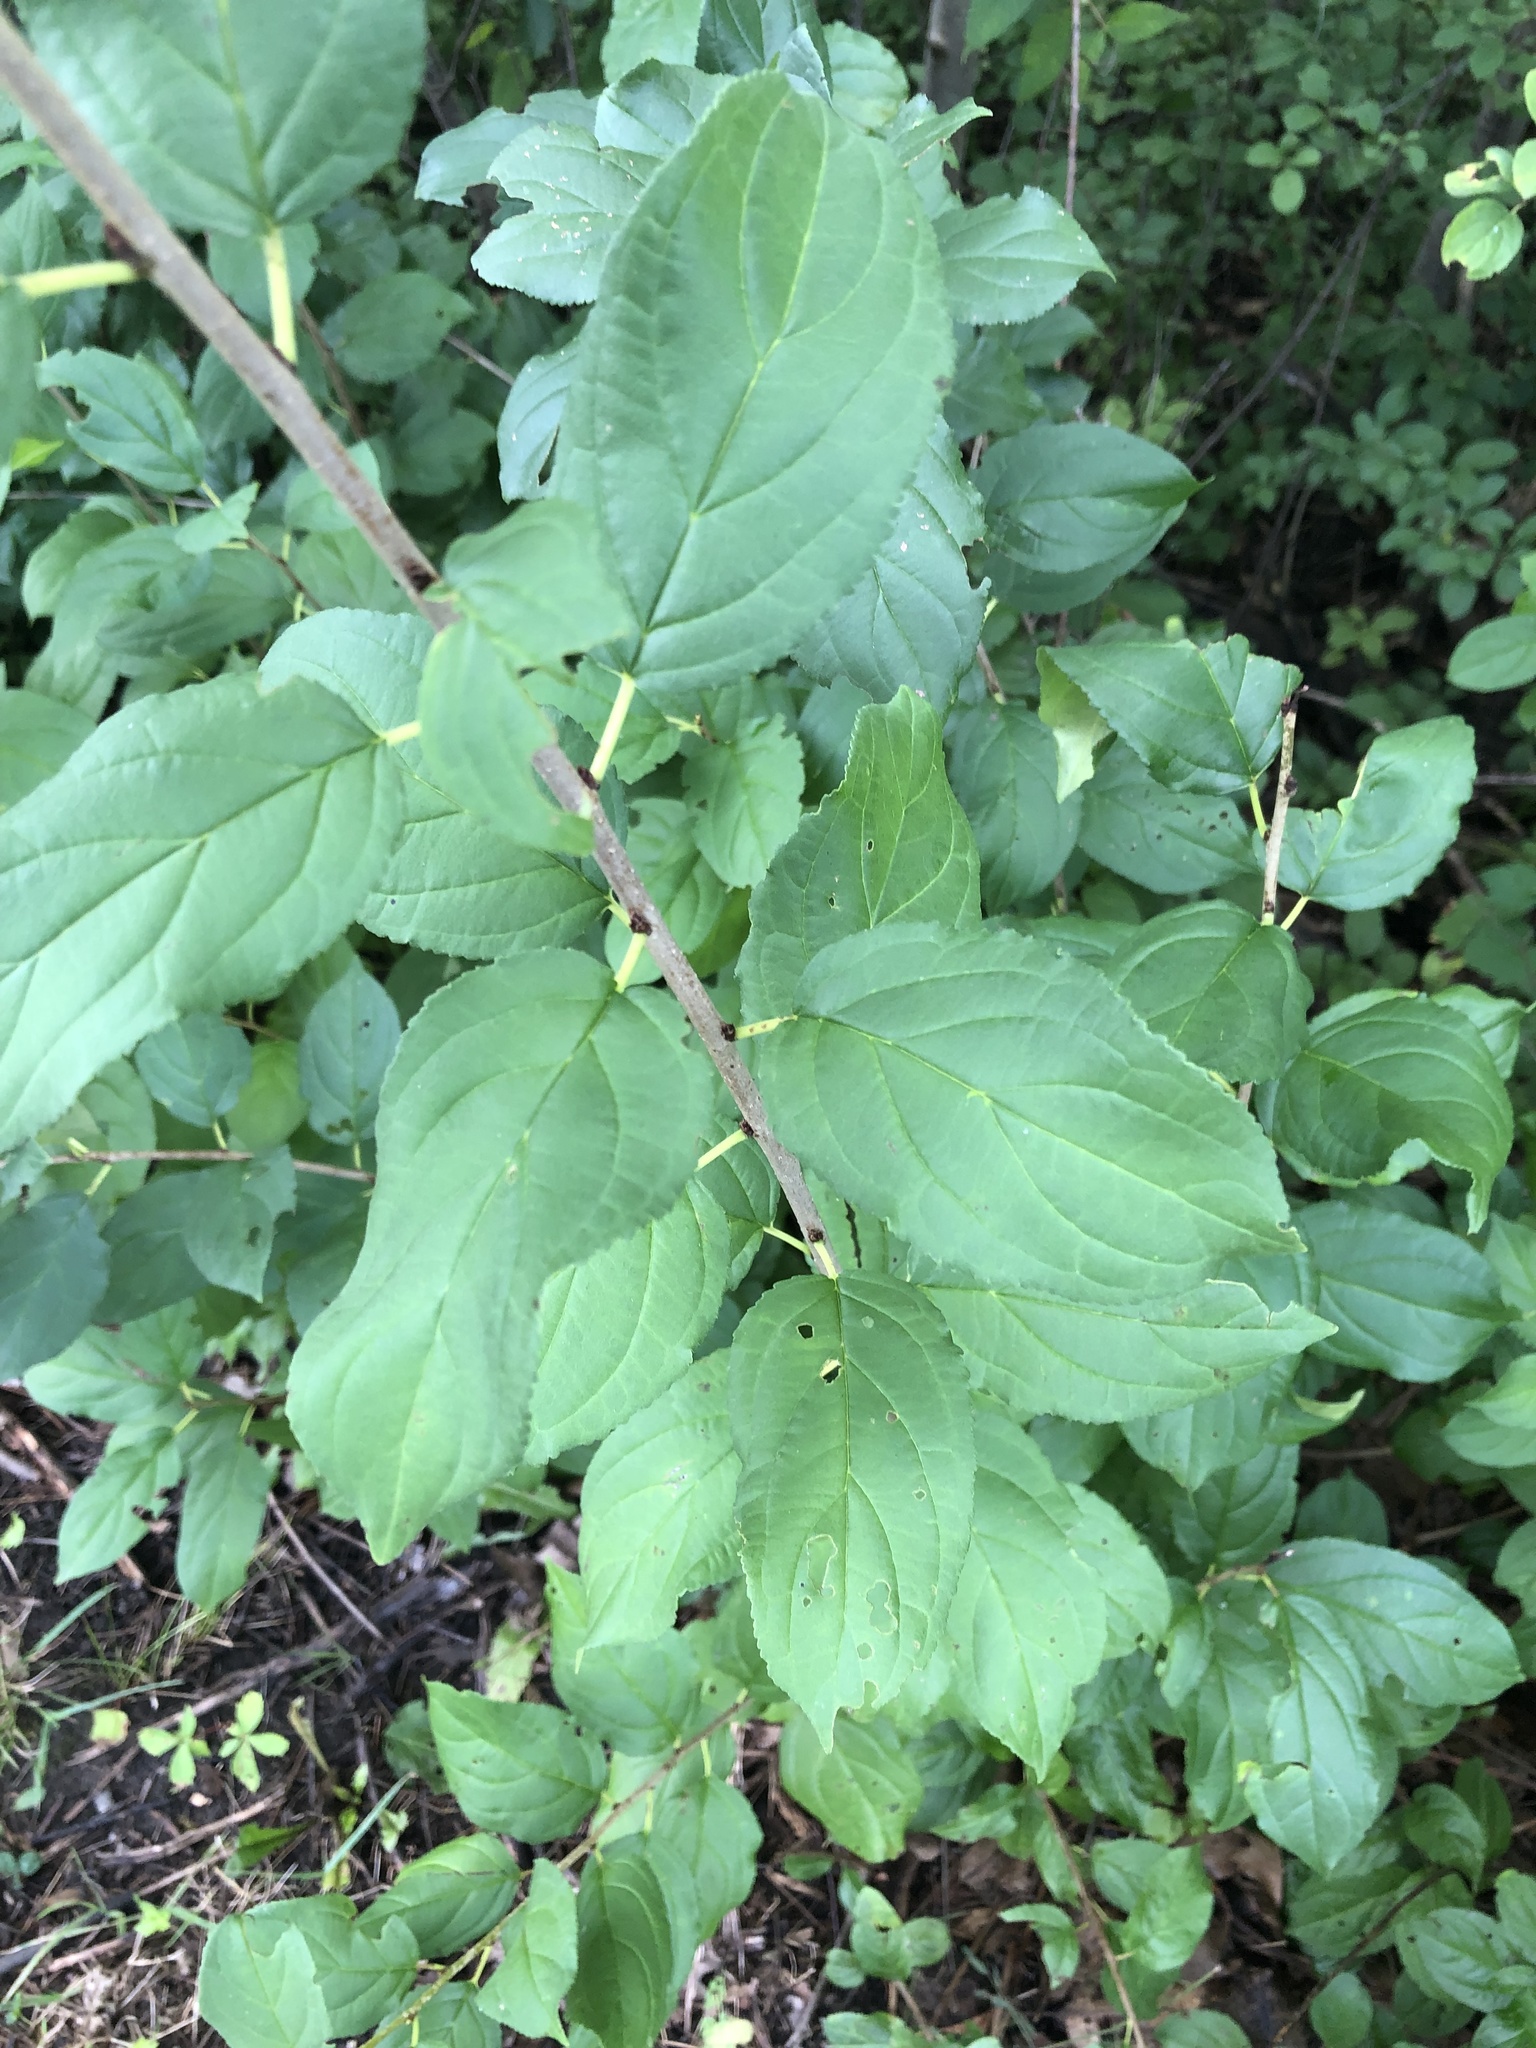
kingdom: Plantae
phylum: Tracheophyta
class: Magnoliopsida
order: Rosales
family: Rhamnaceae
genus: Rhamnus
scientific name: Rhamnus cathartica
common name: Common buckthorn
